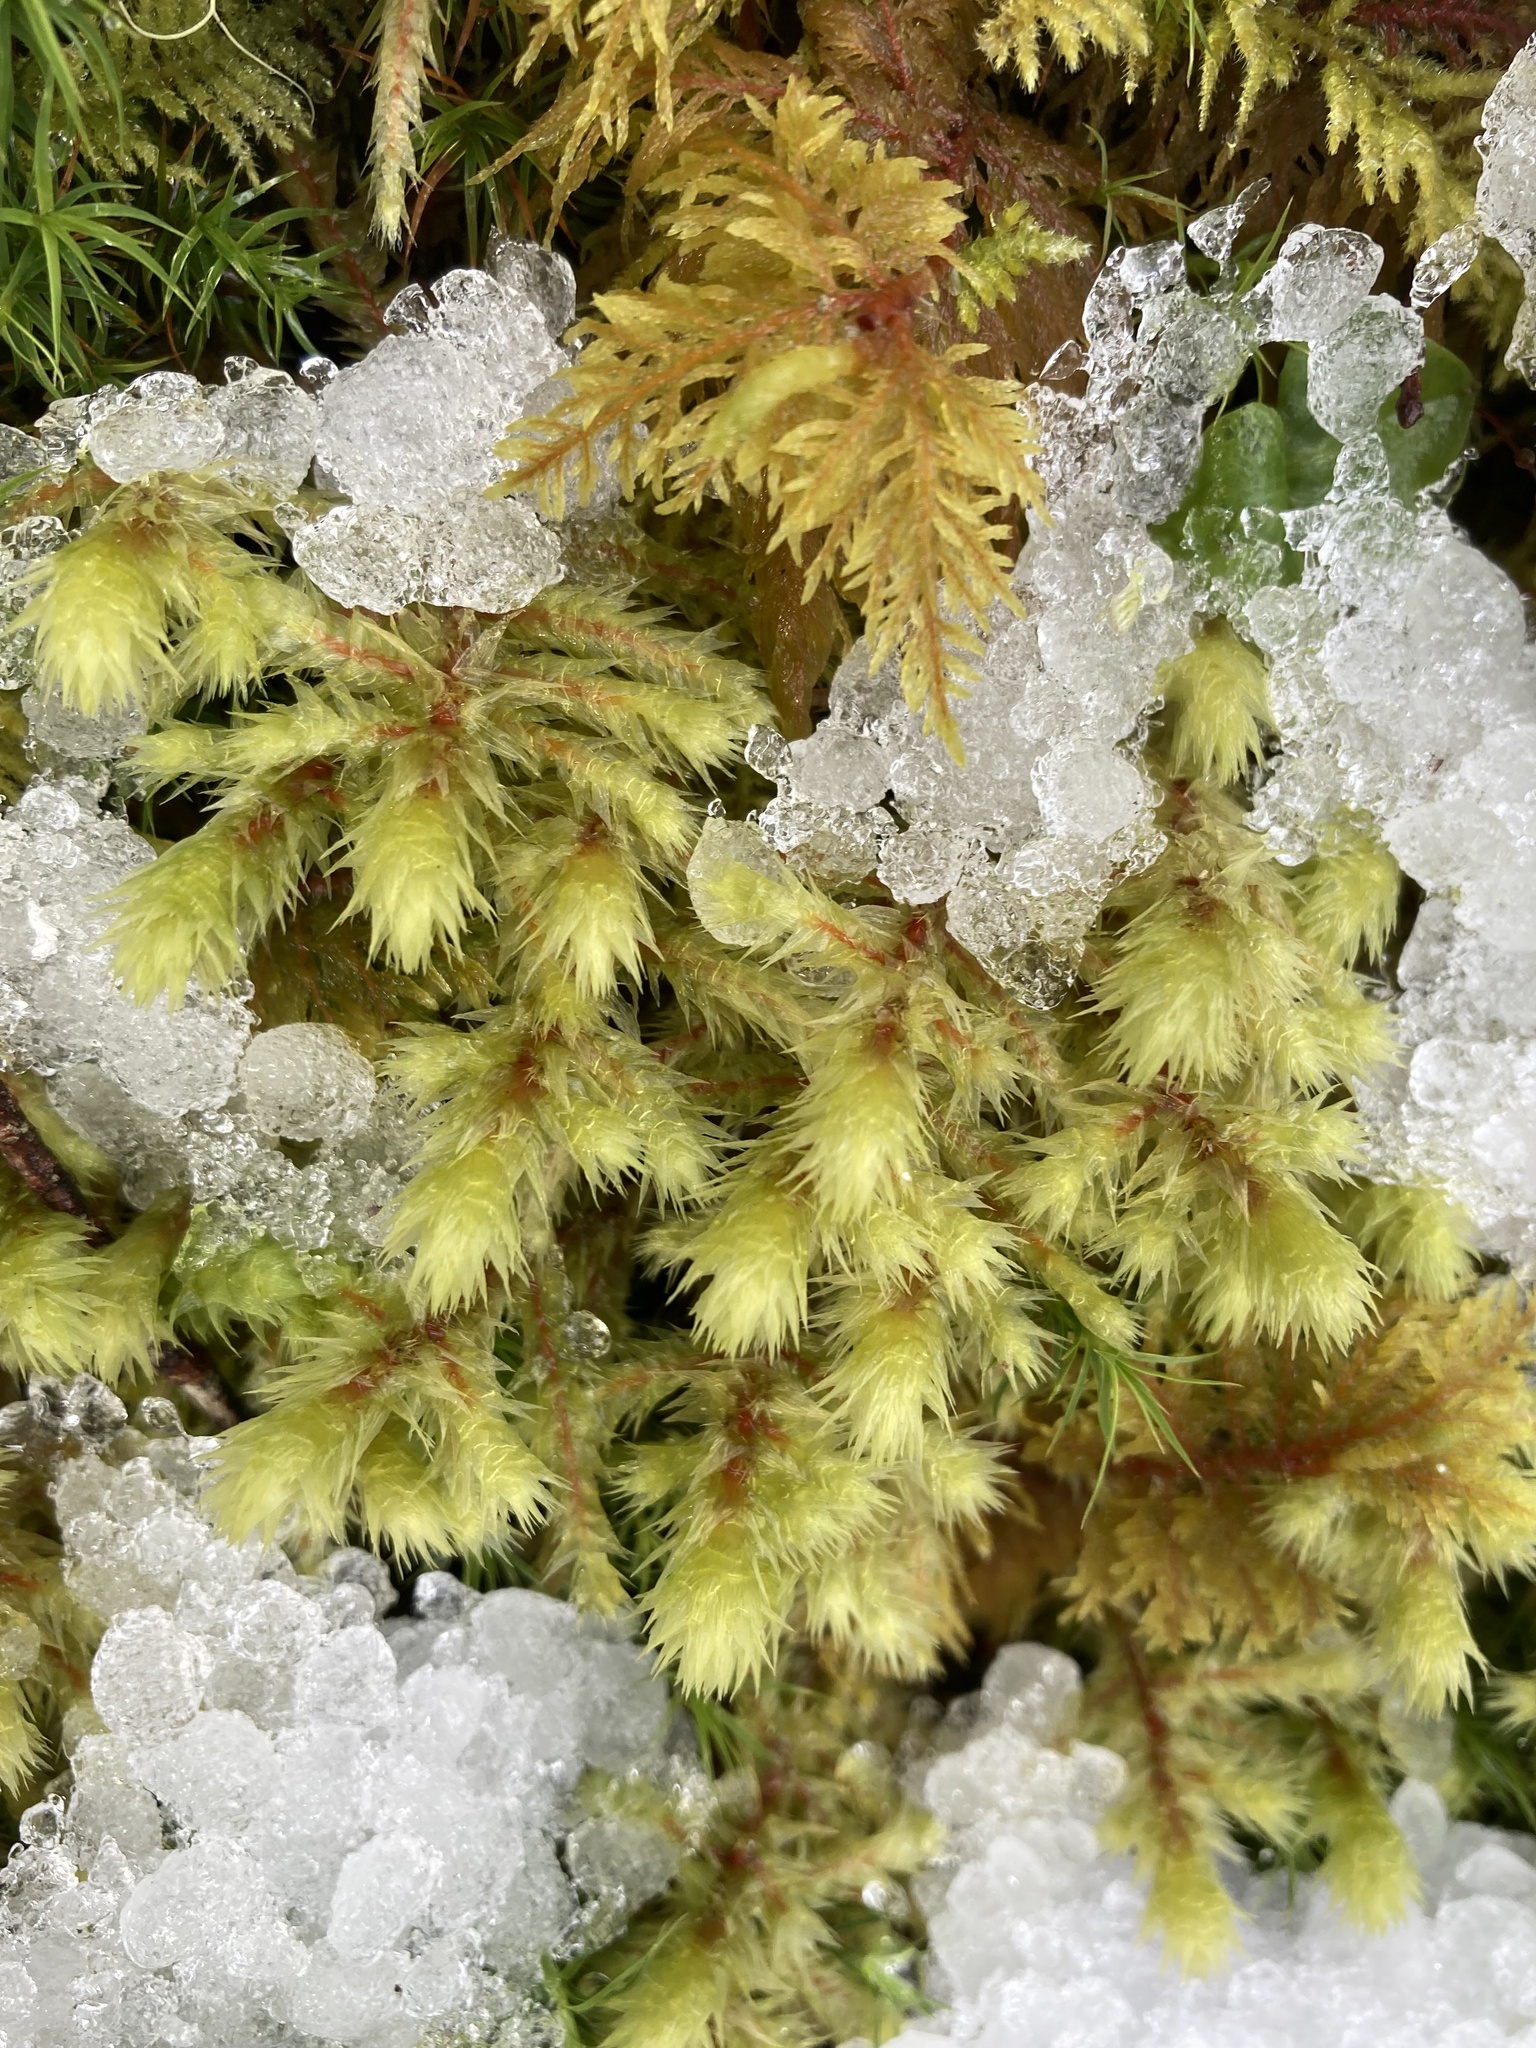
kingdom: Plantae
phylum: Bryophyta
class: Bryopsida
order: Hypnales
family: Hylocomiaceae
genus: Hylocomiadelphus
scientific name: Hylocomiadelphus triquetrus
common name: Rough goose neck moss
